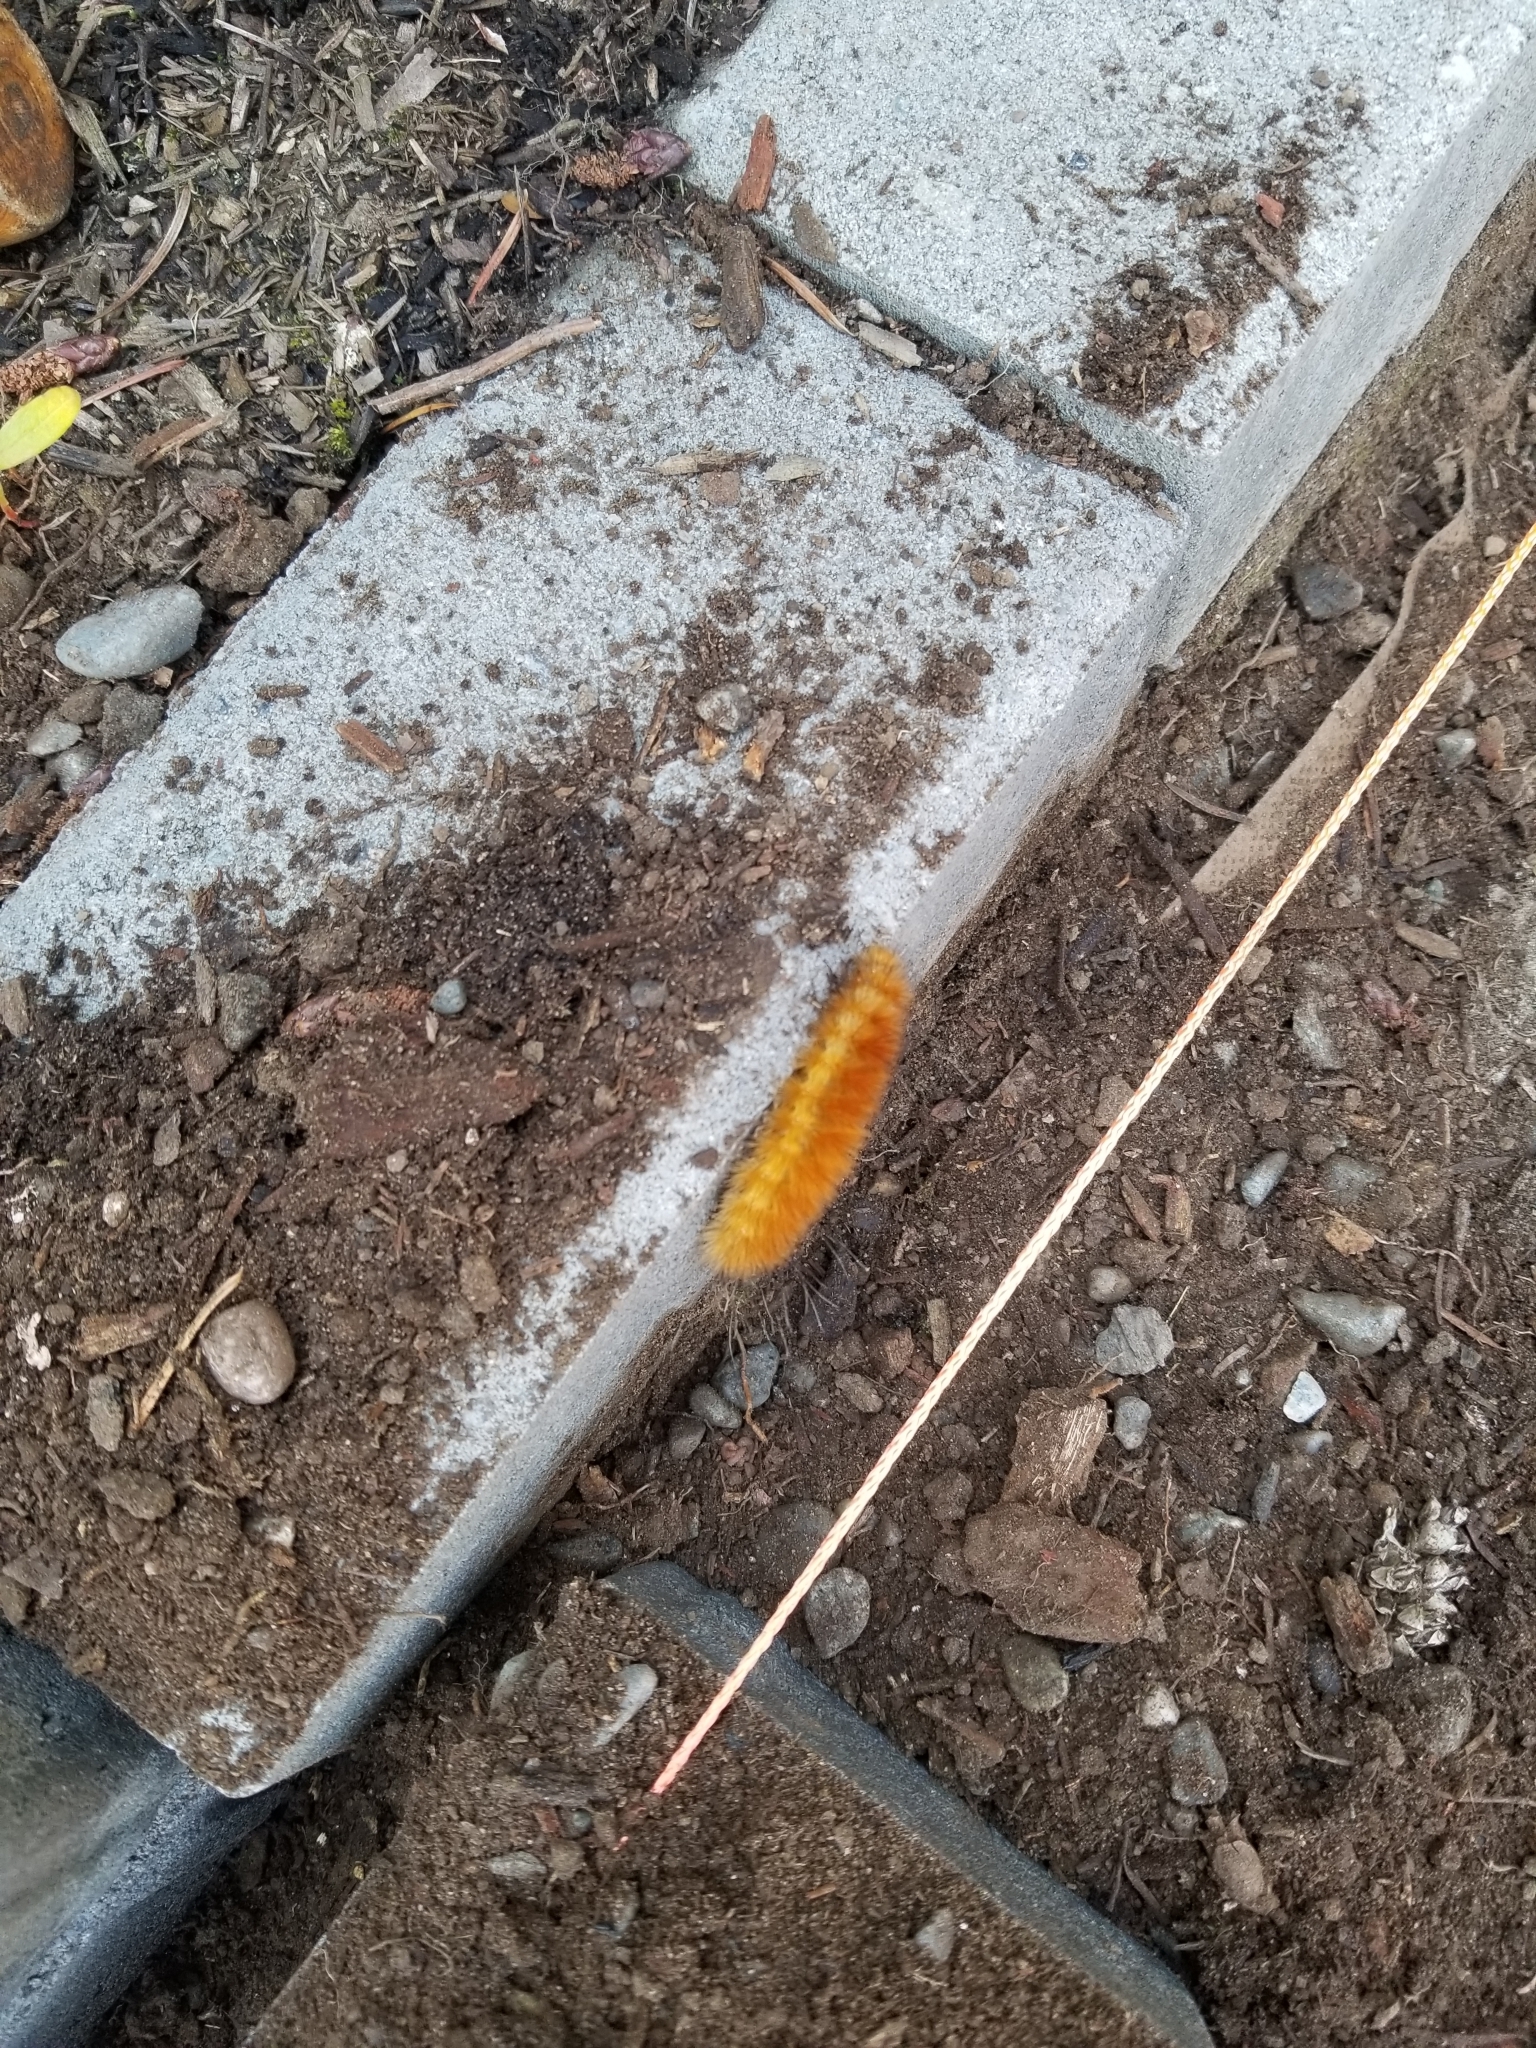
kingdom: Animalia
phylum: Arthropoda
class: Insecta
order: Lepidoptera
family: Erebidae
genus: Spilosoma
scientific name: Spilosoma virginica
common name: Virginia tiger moth
